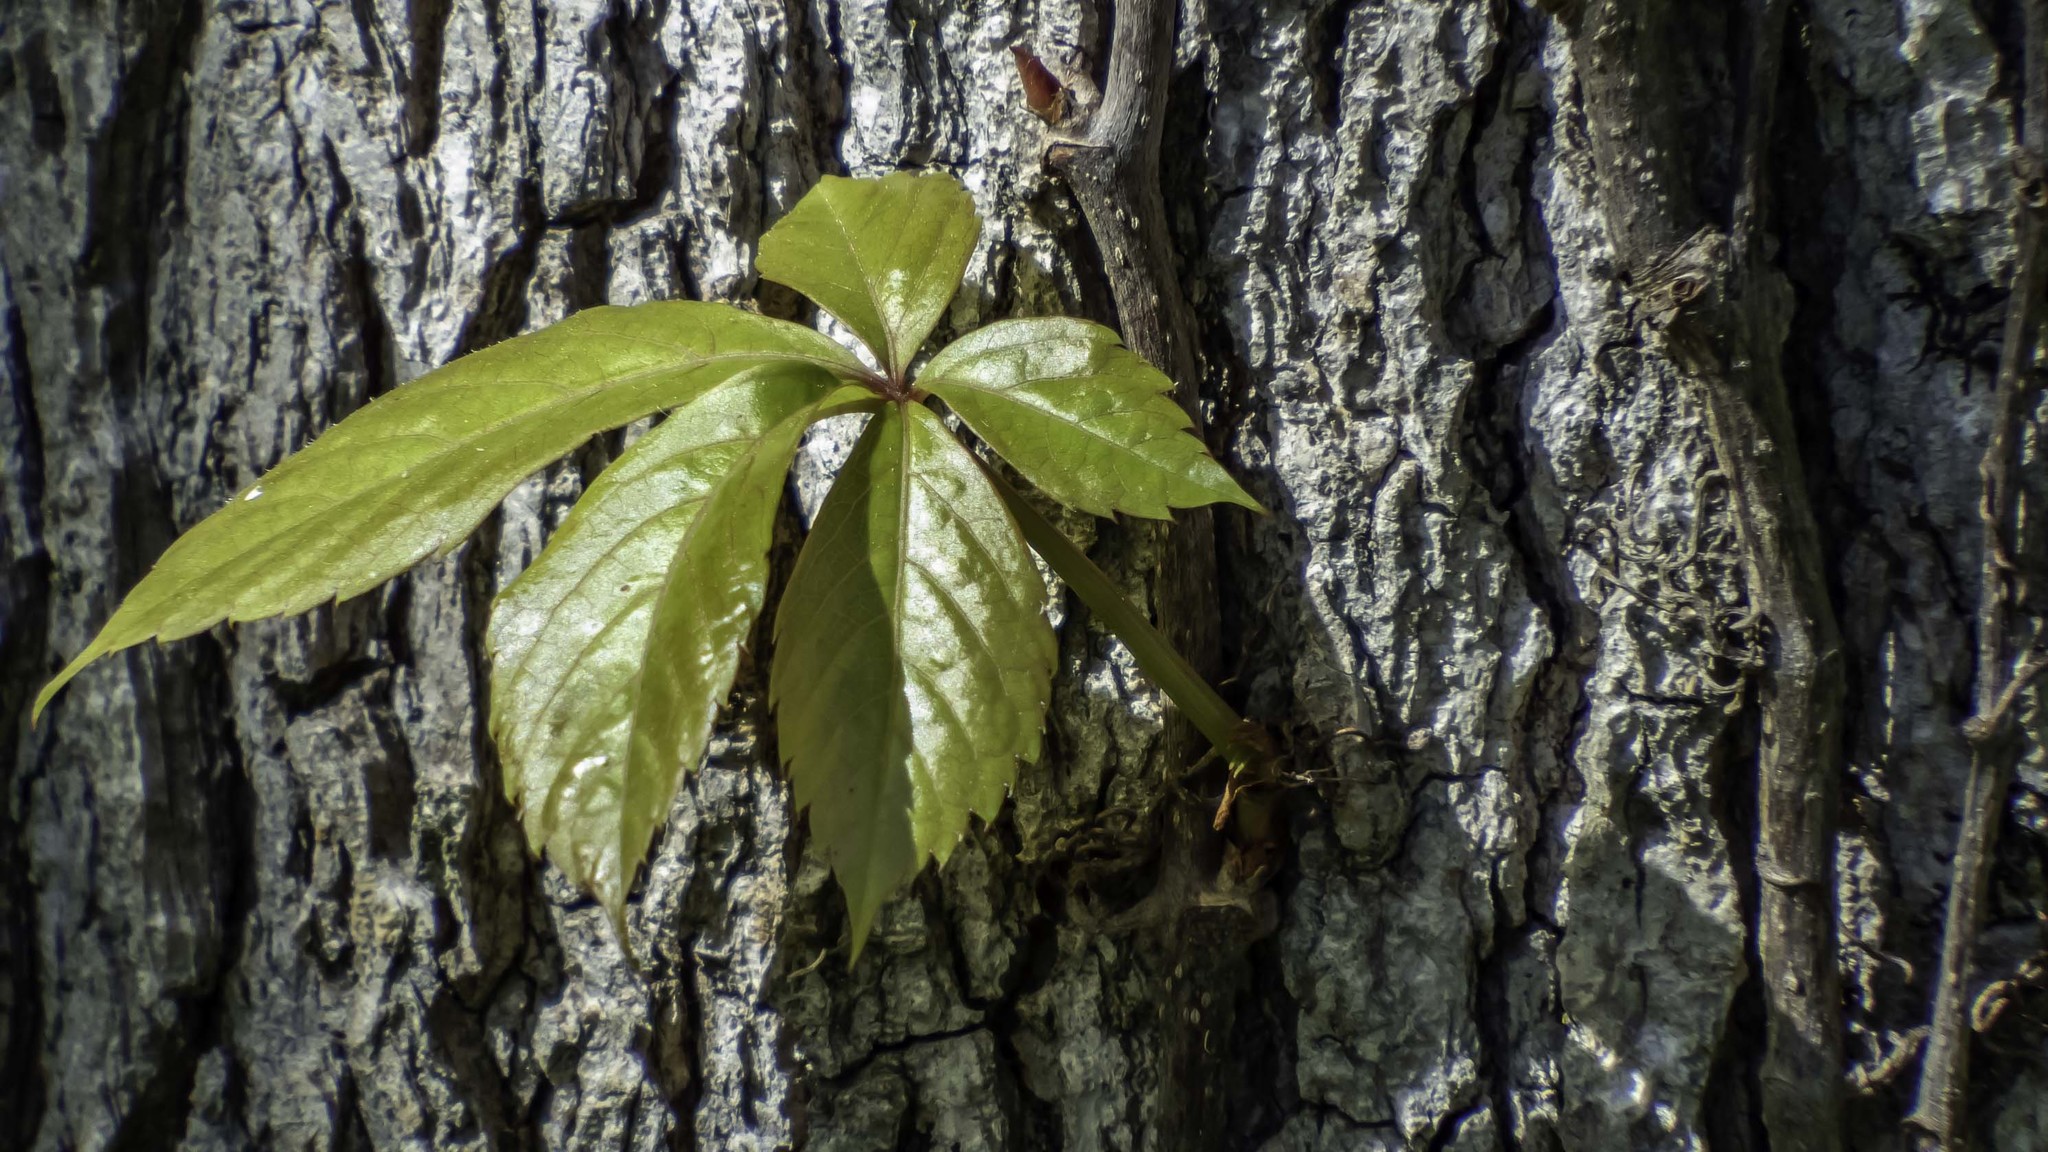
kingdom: Plantae
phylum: Tracheophyta
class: Magnoliopsida
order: Vitales
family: Vitaceae
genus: Parthenocissus
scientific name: Parthenocissus quinquefolia
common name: Virginia-creeper
